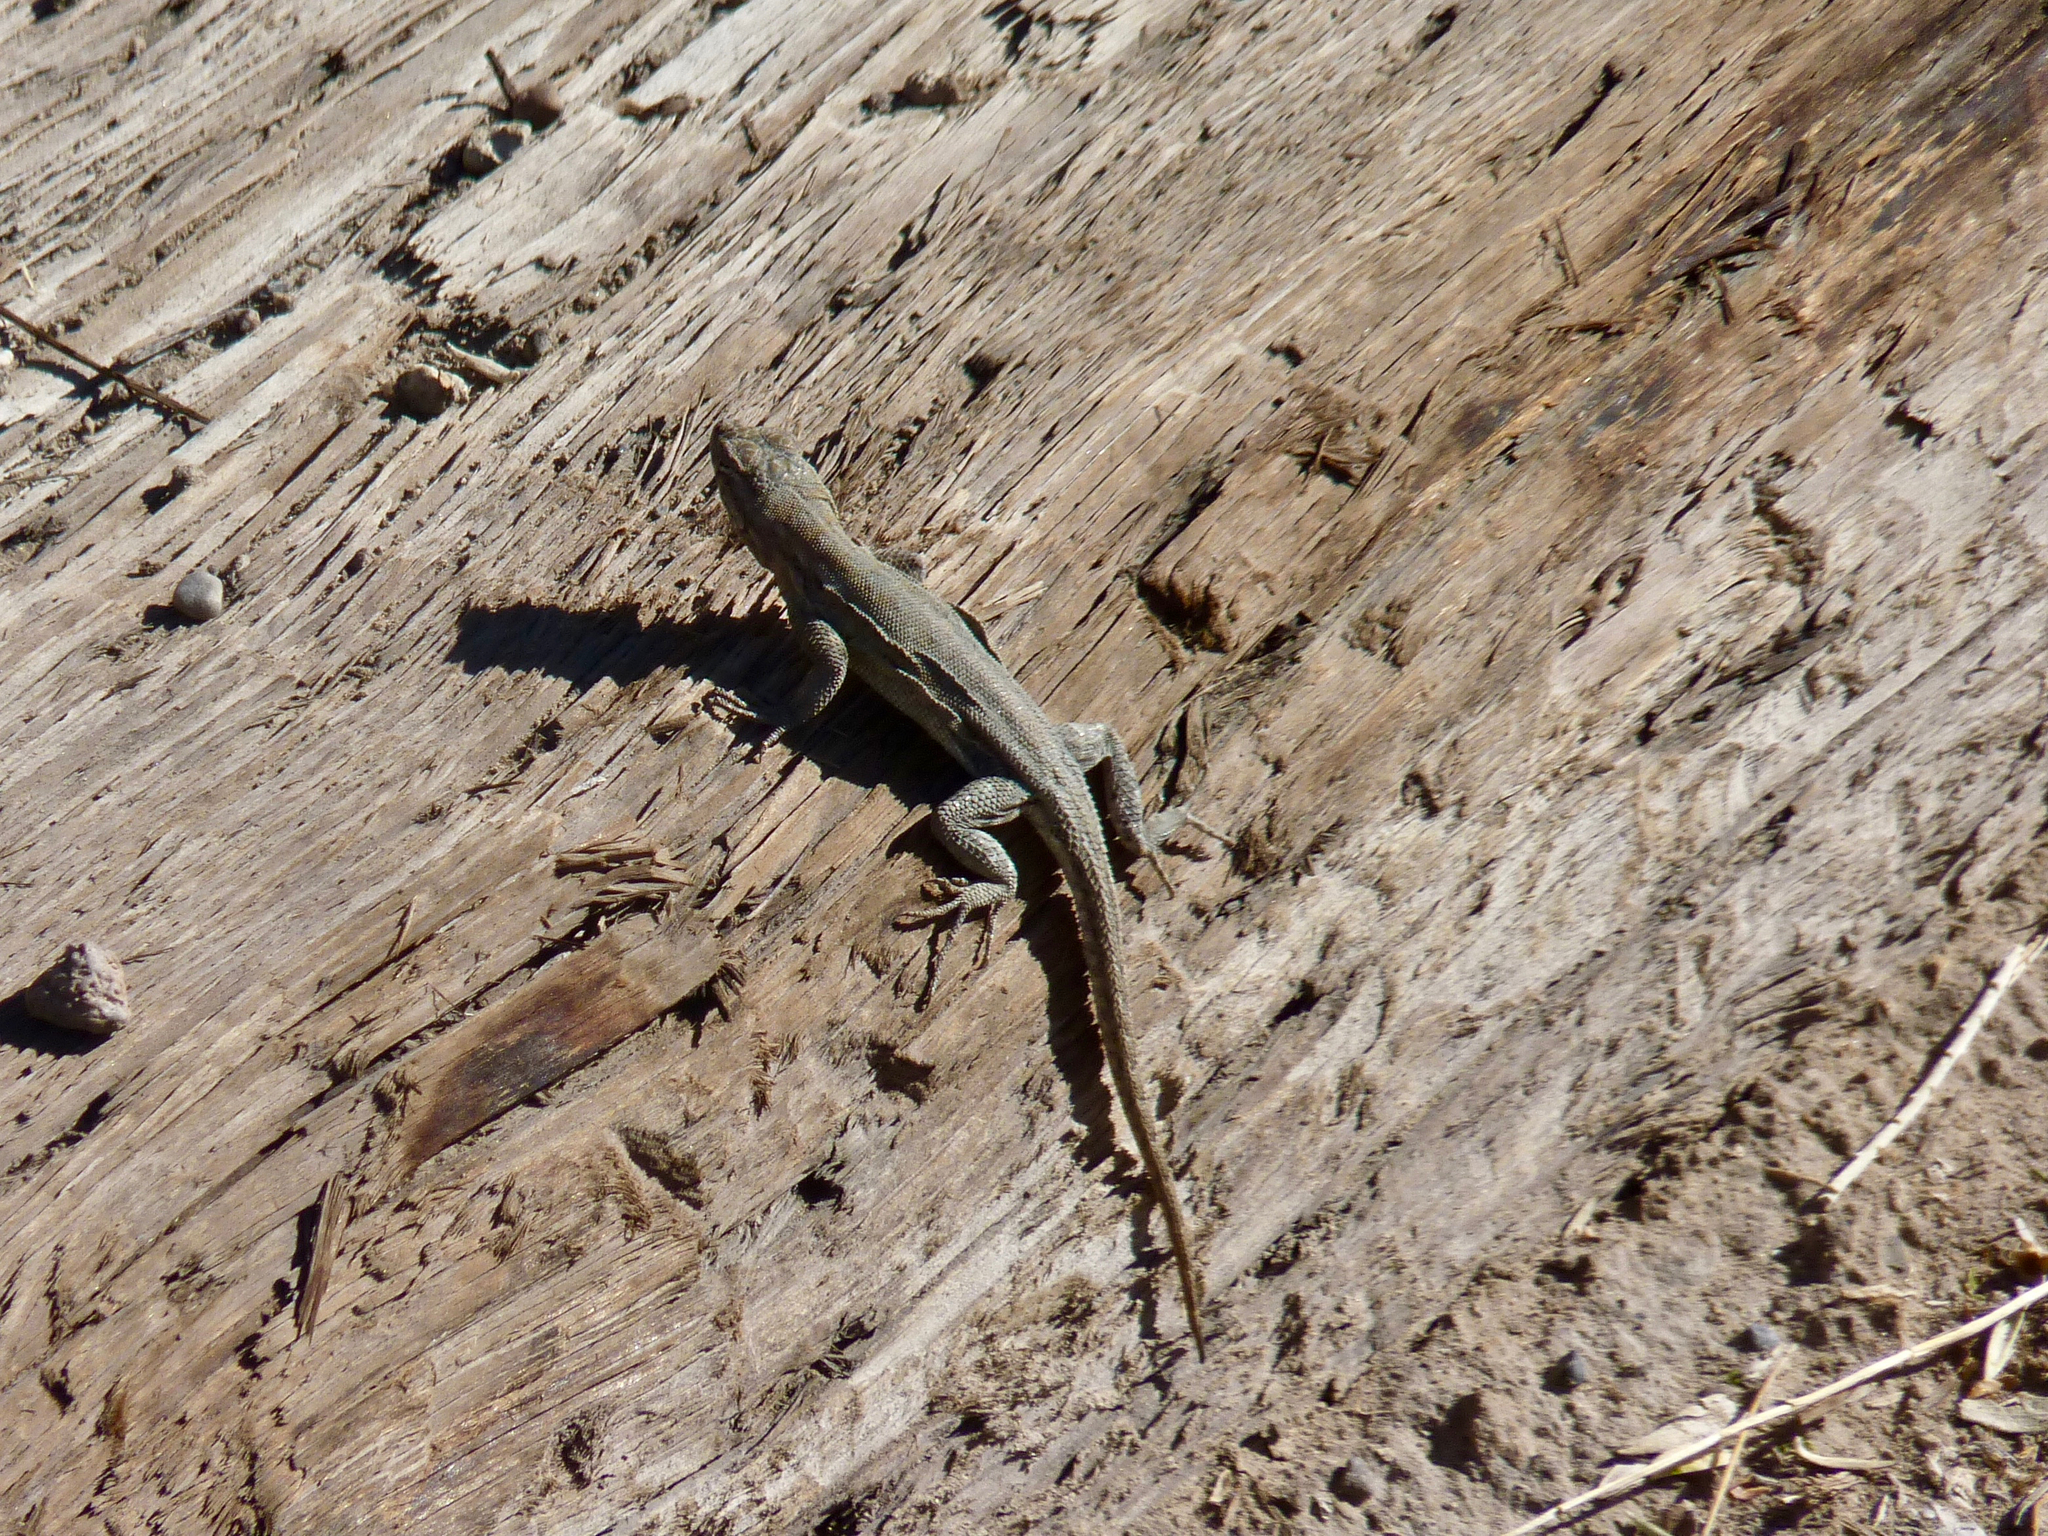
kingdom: Animalia
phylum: Chordata
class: Squamata
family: Phrynosomatidae
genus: Uta
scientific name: Uta stansburiana
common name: Side-blotched lizard
